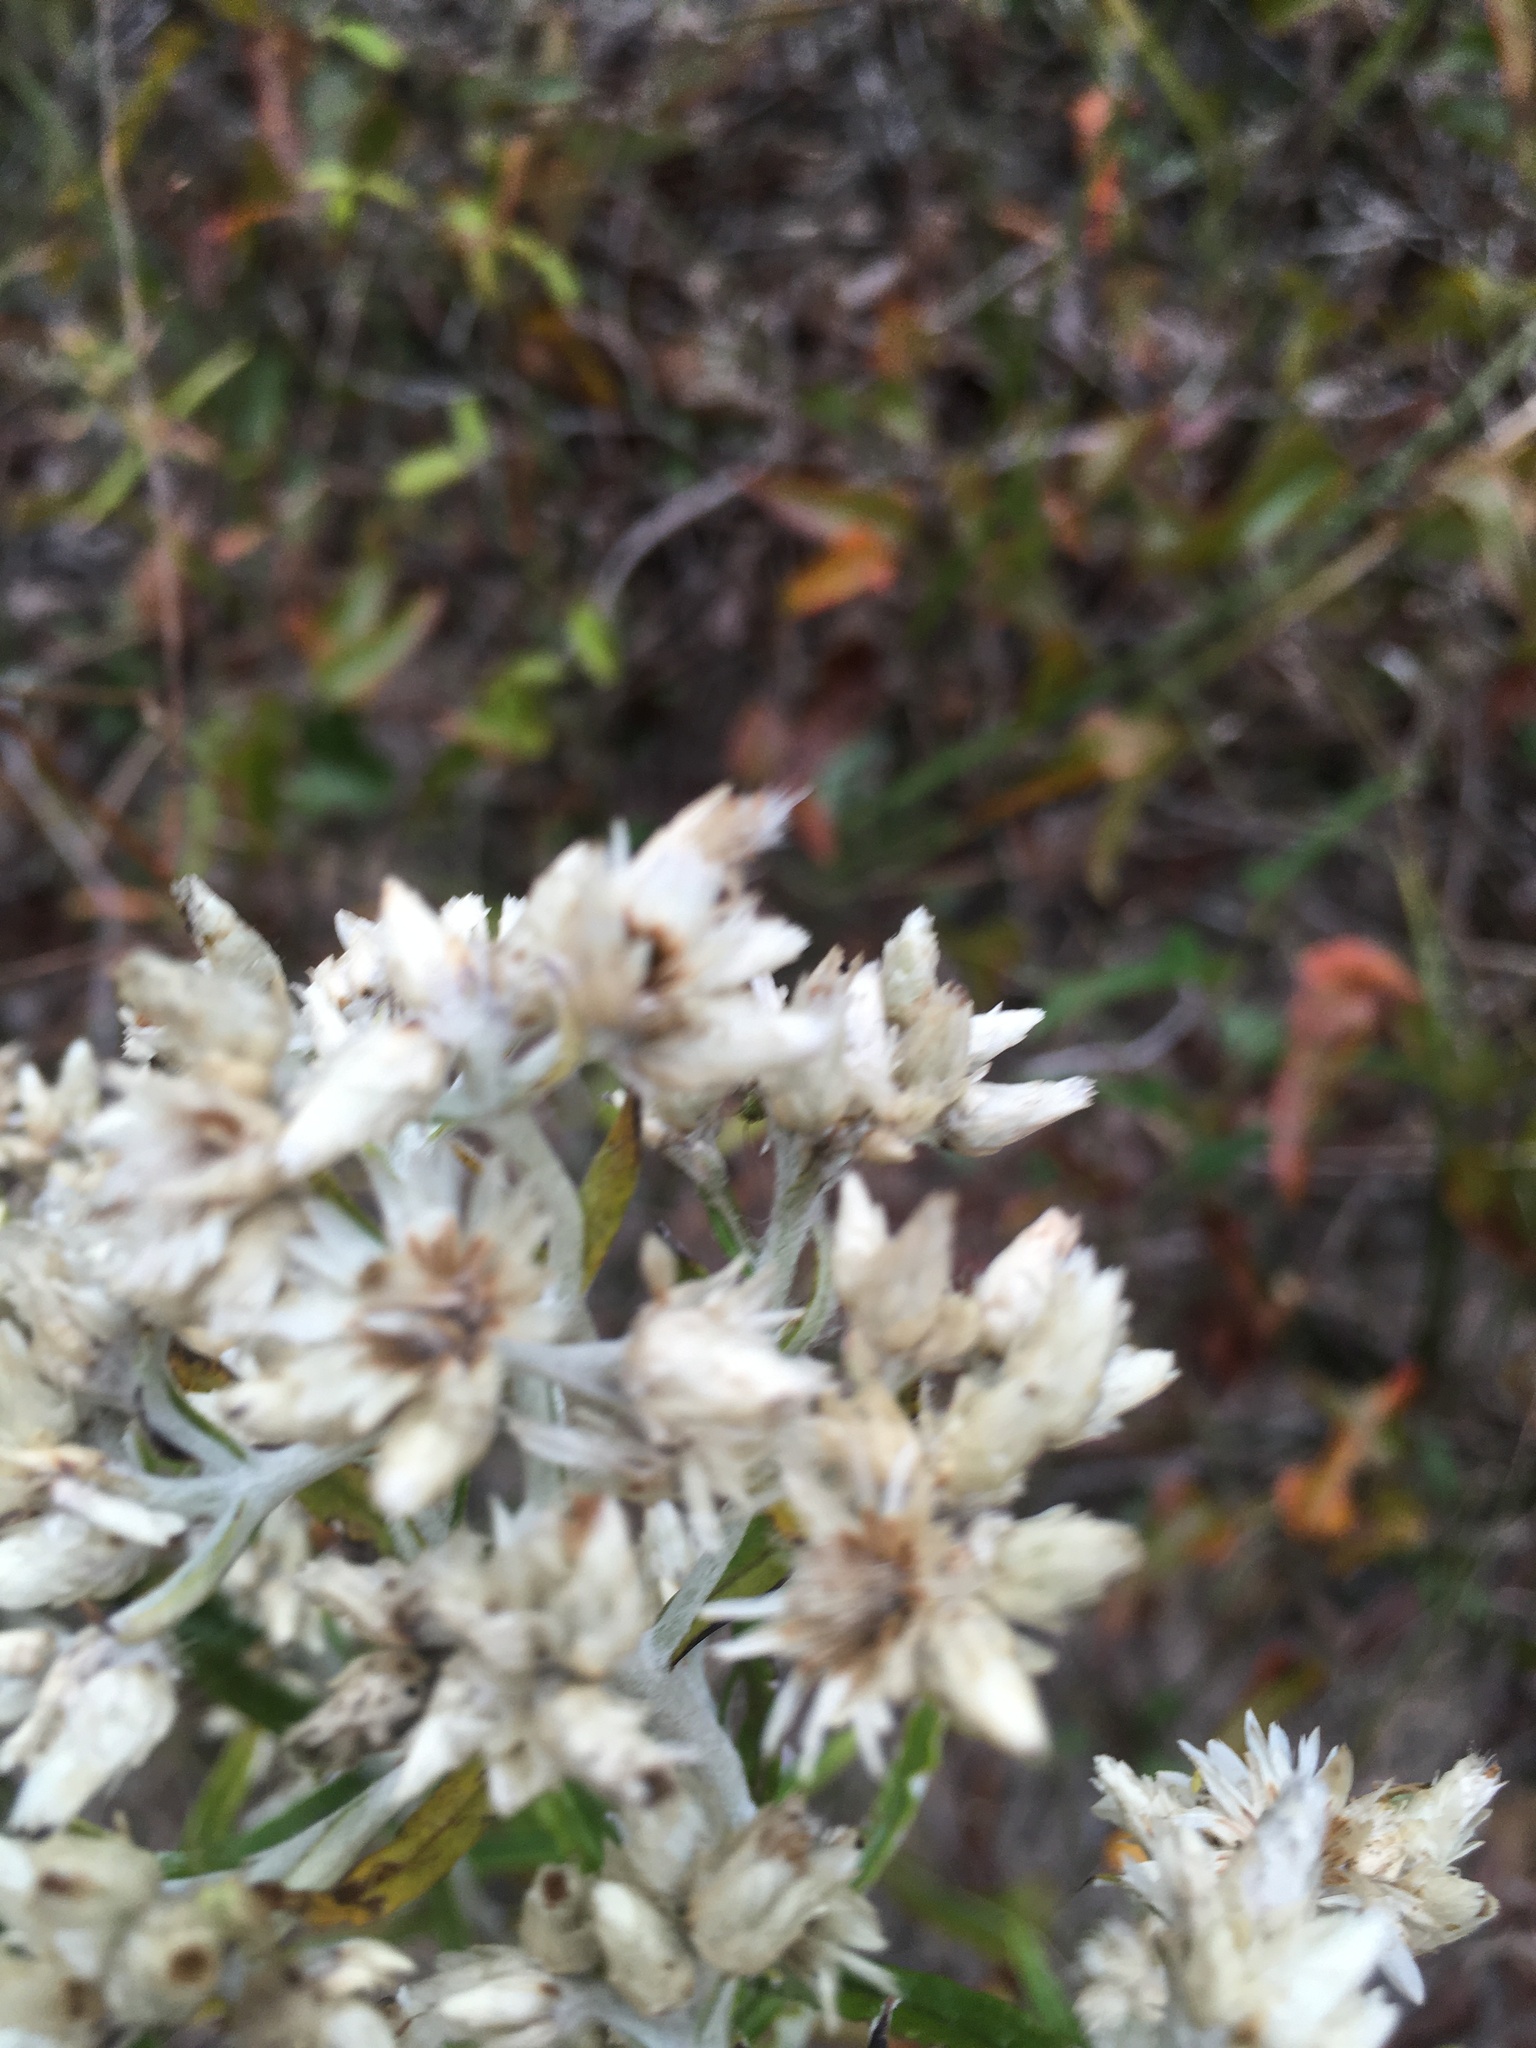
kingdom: Plantae
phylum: Tracheophyta
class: Magnoliopsida
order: Asterales
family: Asteraceae
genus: Pseudognaphalium
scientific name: Pseudognaphalium obtusifolium
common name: Eastern rabbit-tobacco
